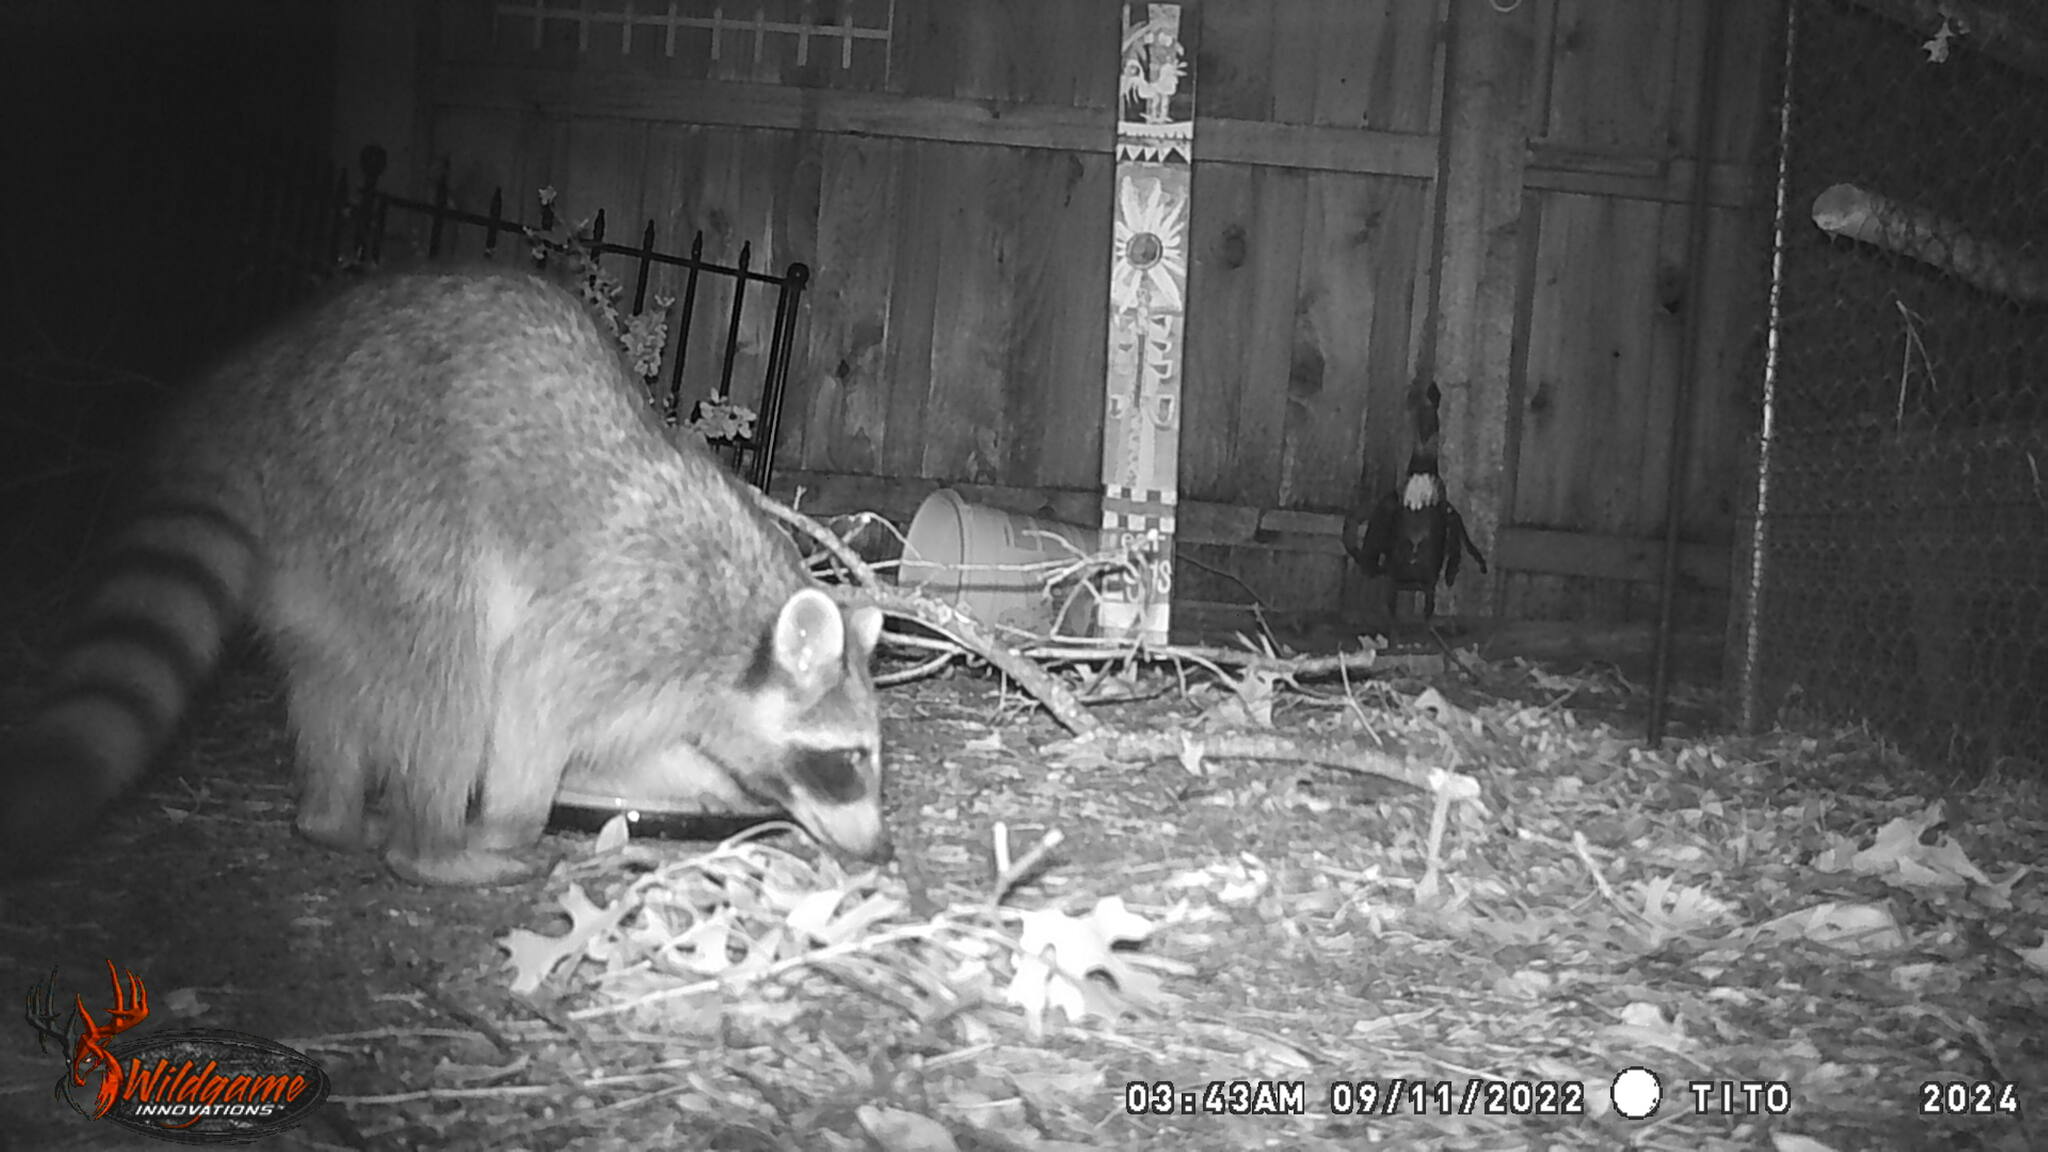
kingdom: Animalia
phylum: Chordata
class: Mammalia
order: Carnivora
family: Procyonidae
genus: Procyon
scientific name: Procyon lotor
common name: Raccoon
